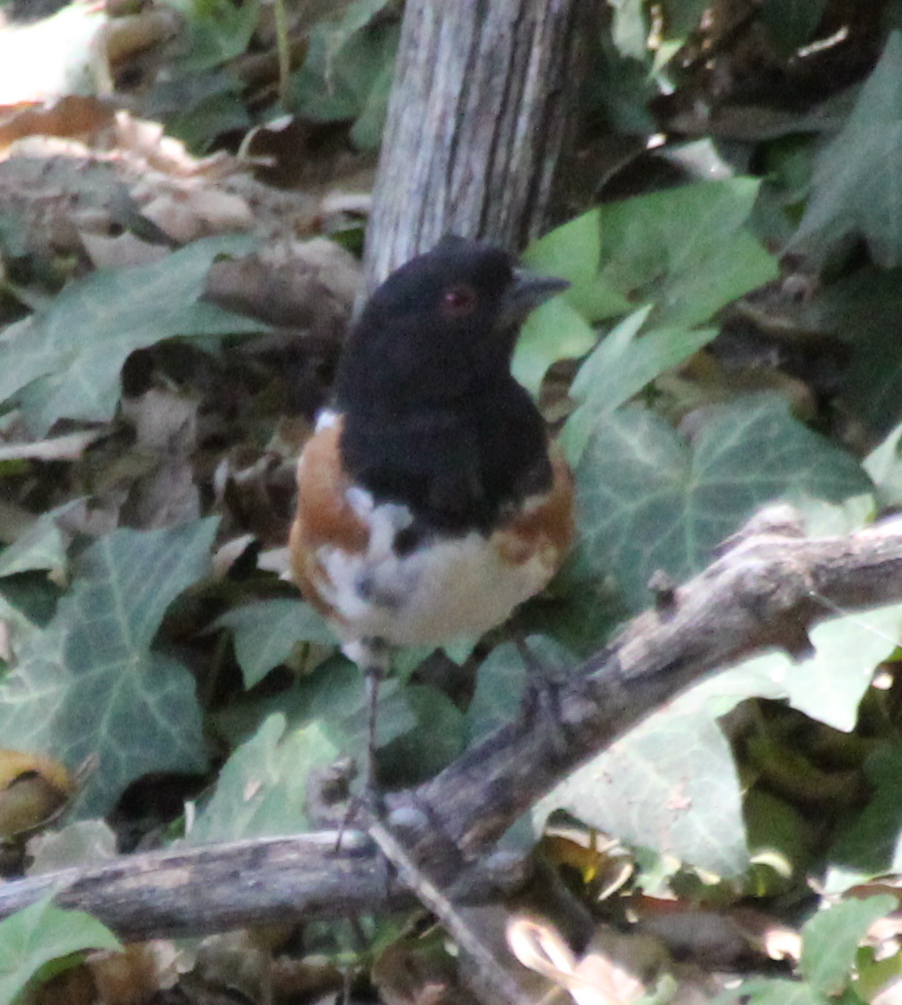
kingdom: Animalia
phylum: Chordata
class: Aves
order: Passeriformes
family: Passerellidae
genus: Pipilo
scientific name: Pipilo maculatus
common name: Spotted towhee
